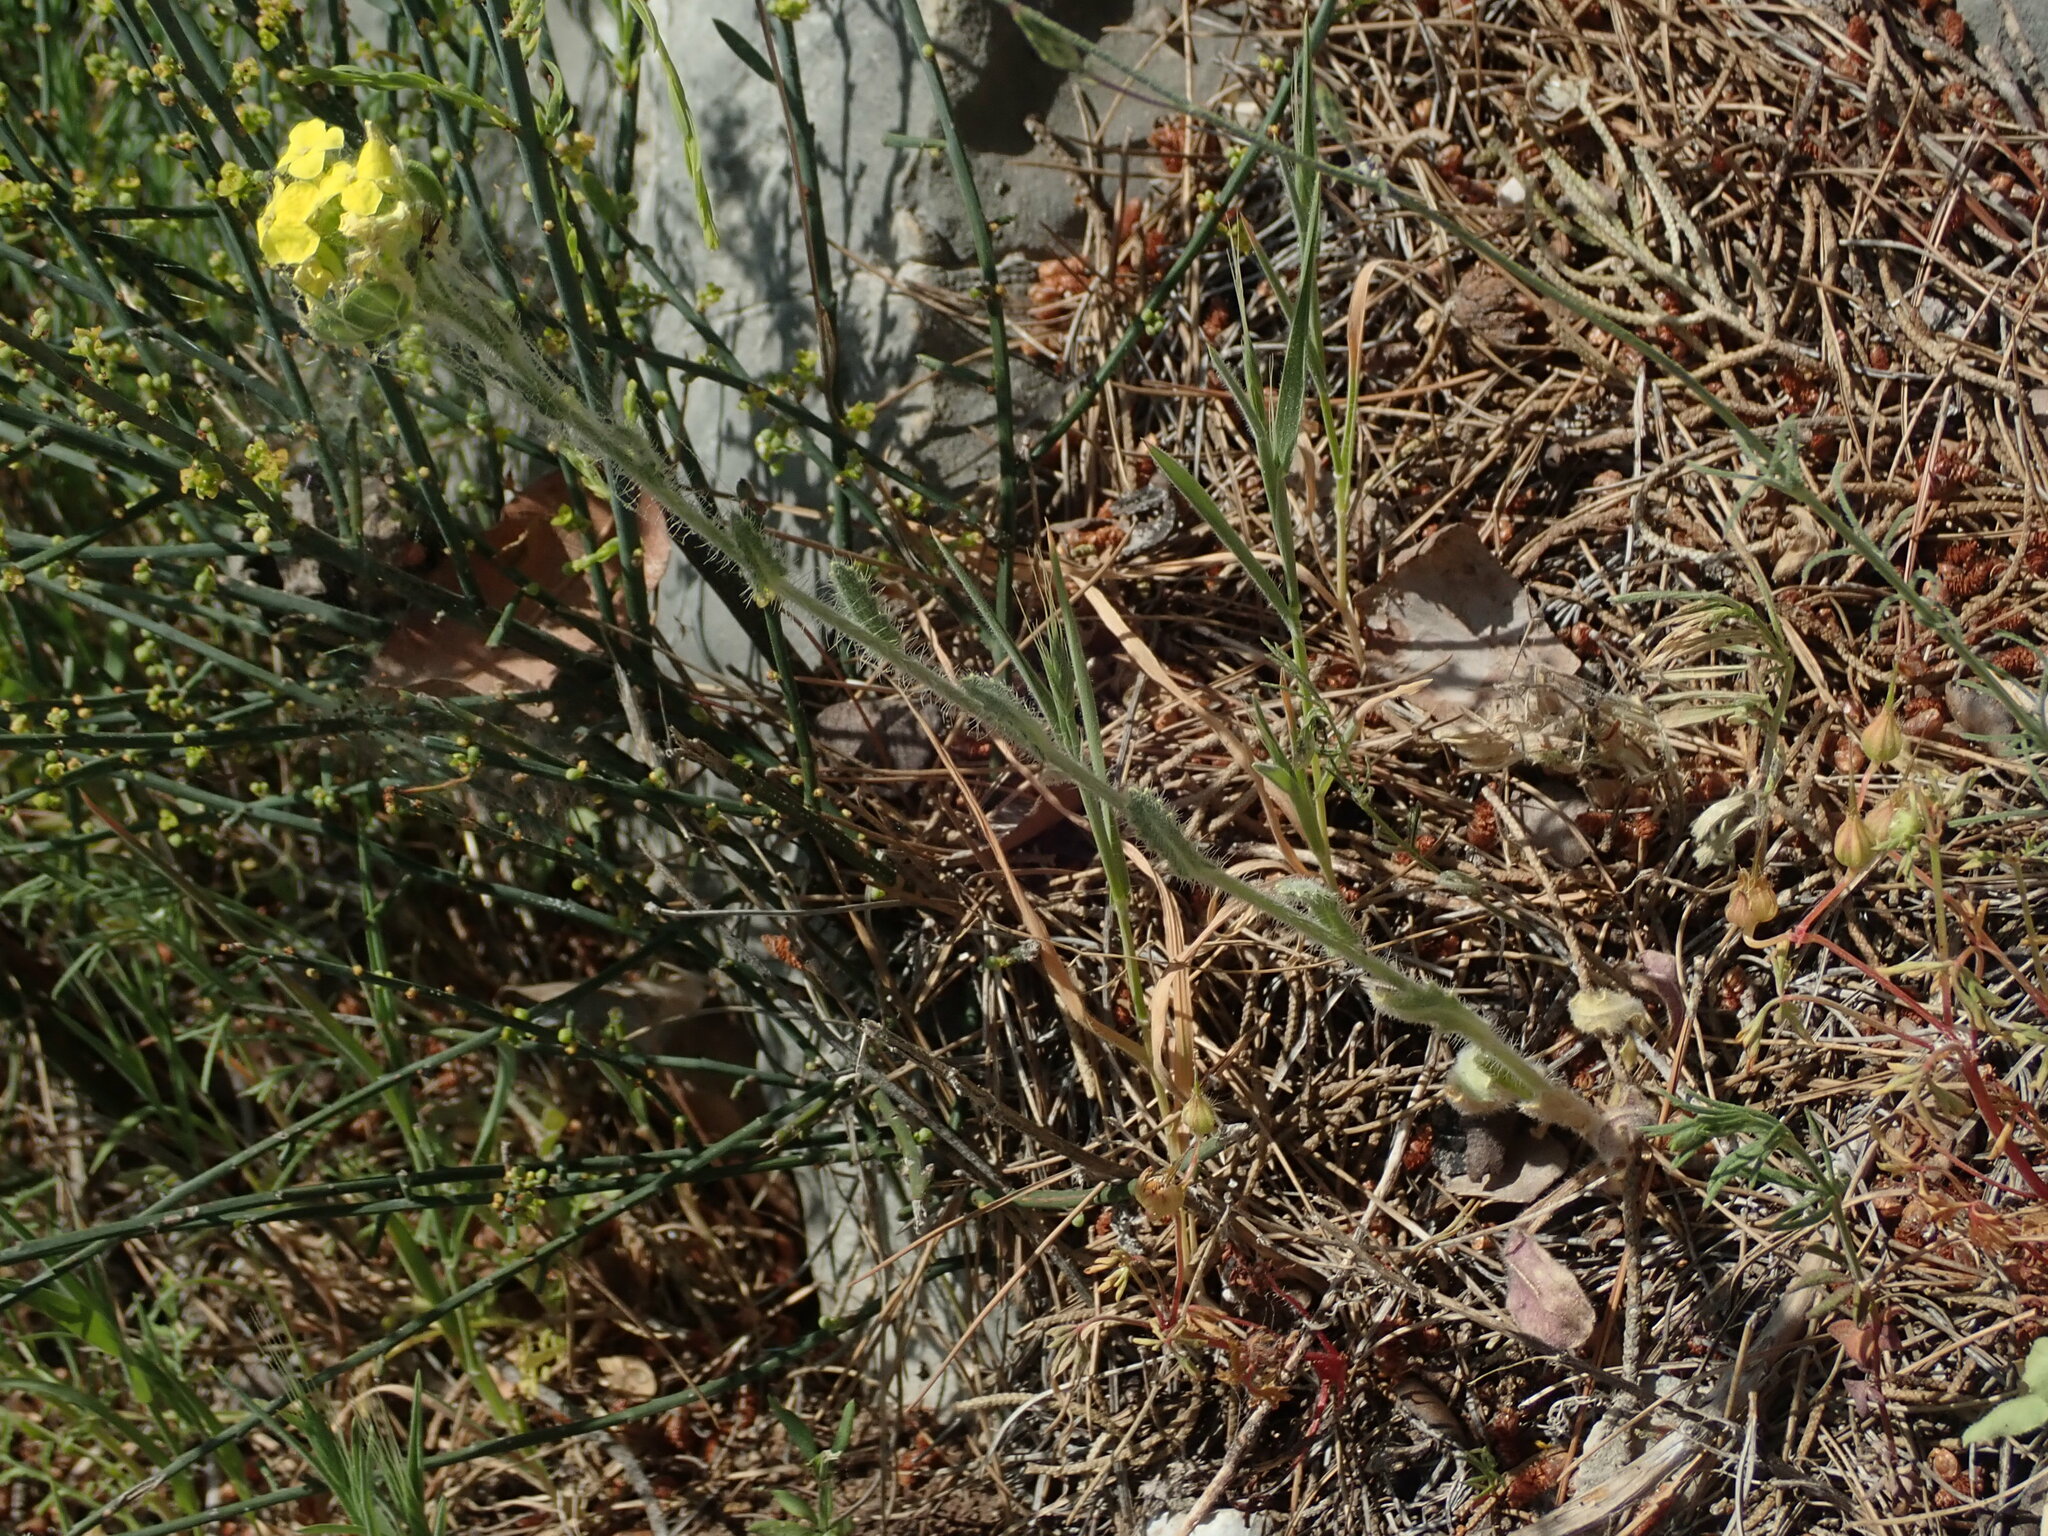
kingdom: Plantae
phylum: Tracheophyta
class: Magnoliopsida
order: Brassicales
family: Brassicaceae
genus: Biscutella
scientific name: Biscutella cichoriifolia
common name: Chicory-leaf buckler mustard
